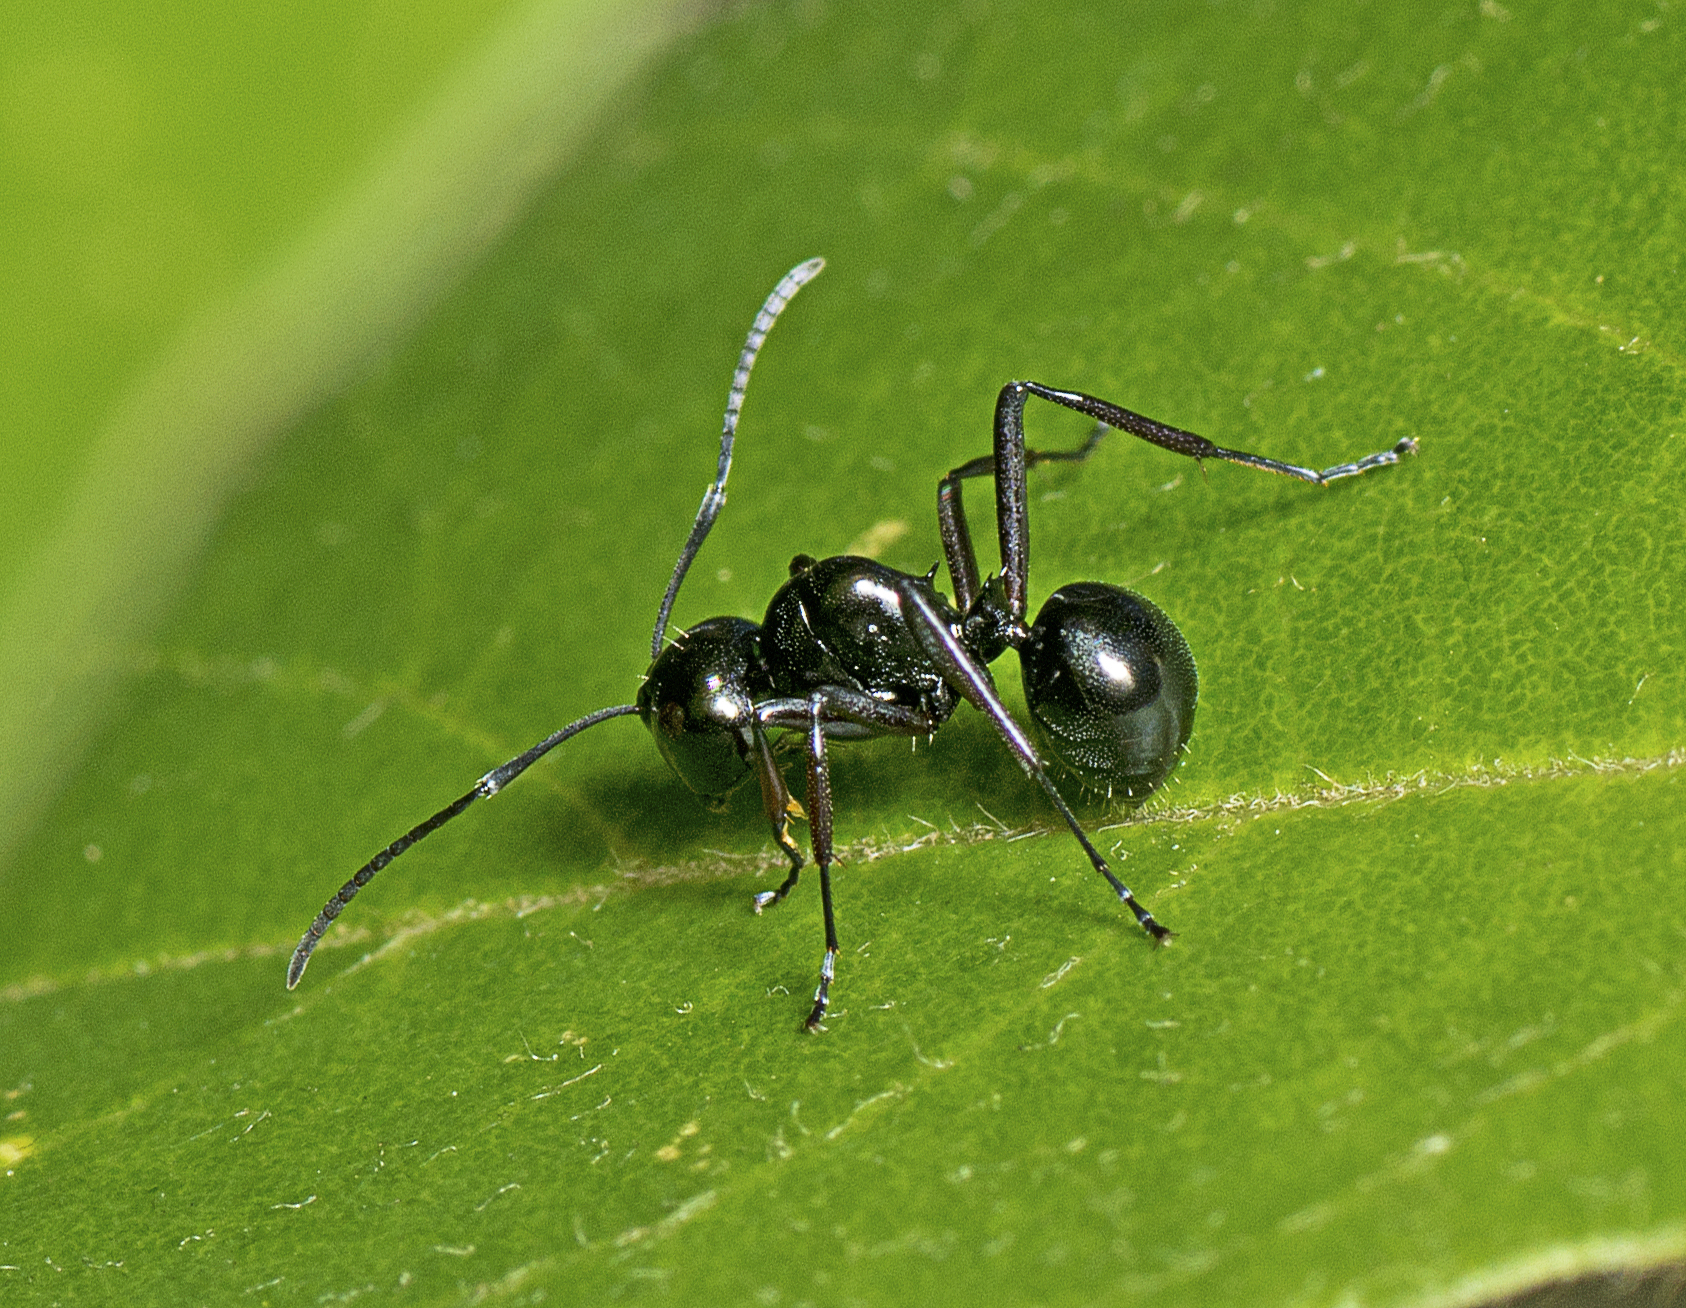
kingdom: Animalia
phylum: Arthropoda
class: Insecta
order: Hymenoptera
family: Formicidae
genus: Polyrhachis
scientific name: Polyrhachis australis
